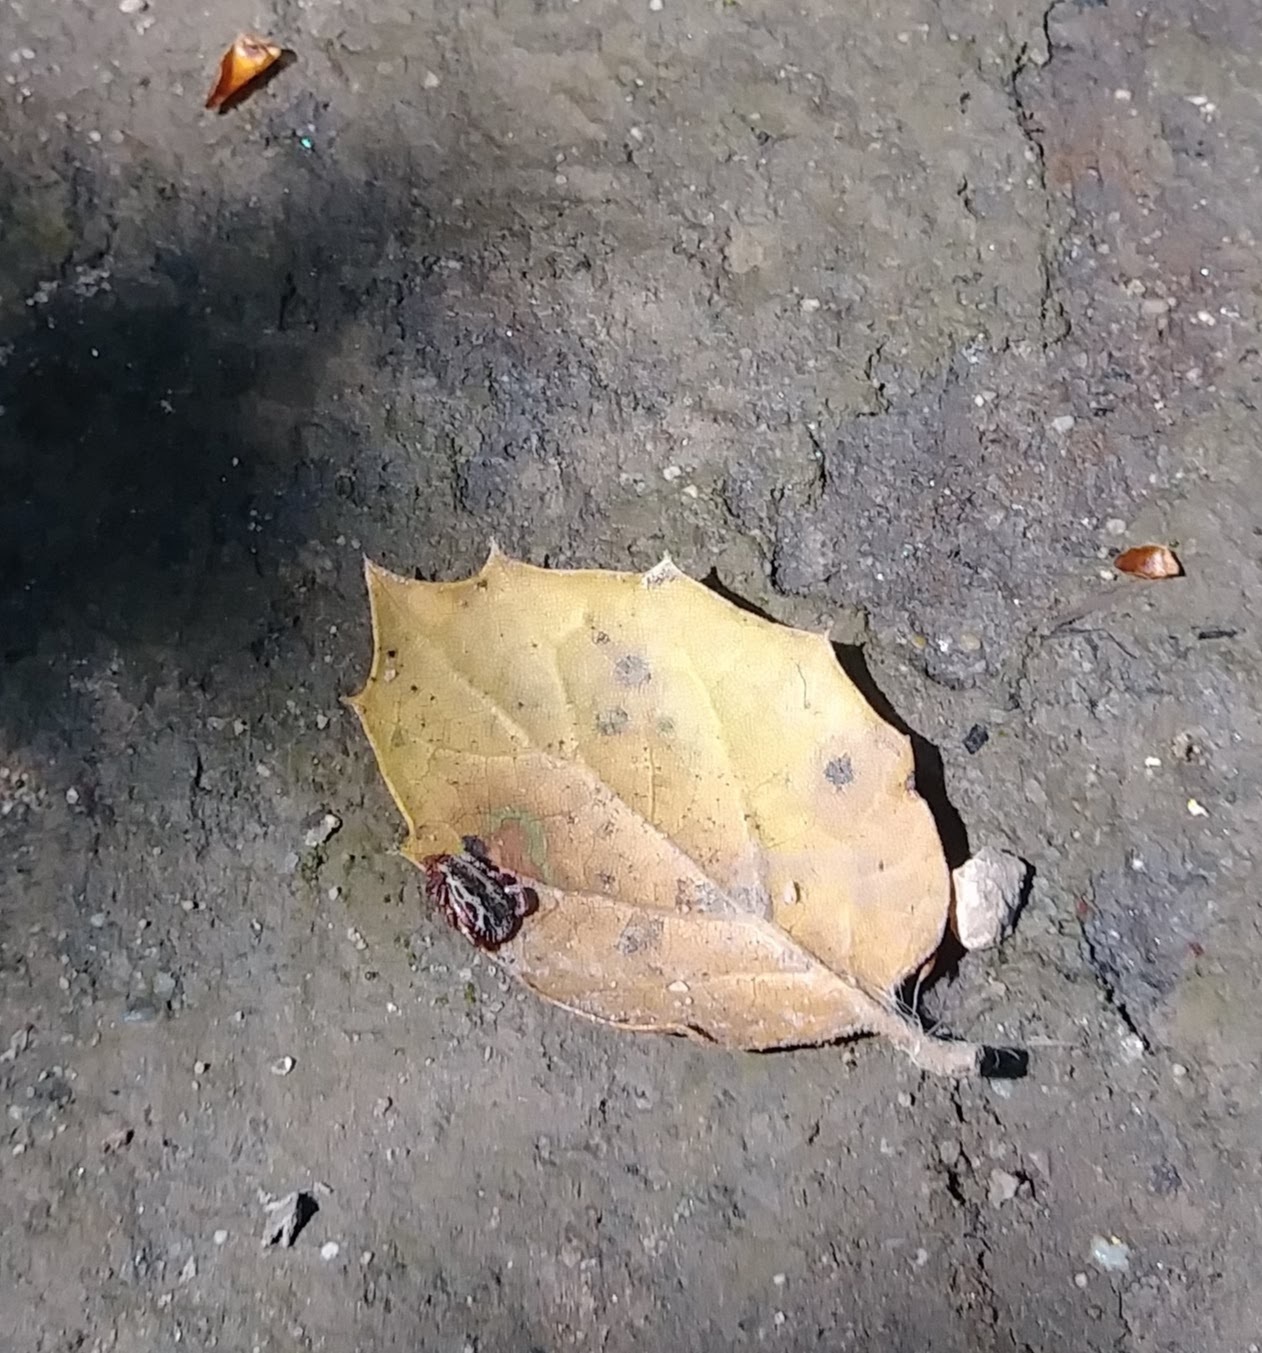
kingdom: Animalia
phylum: Arthropoda
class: Arachnida
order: Ixodida
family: Ixodidae
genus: Dermacentor
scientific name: Dermacentor variabilis
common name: American dog tick
